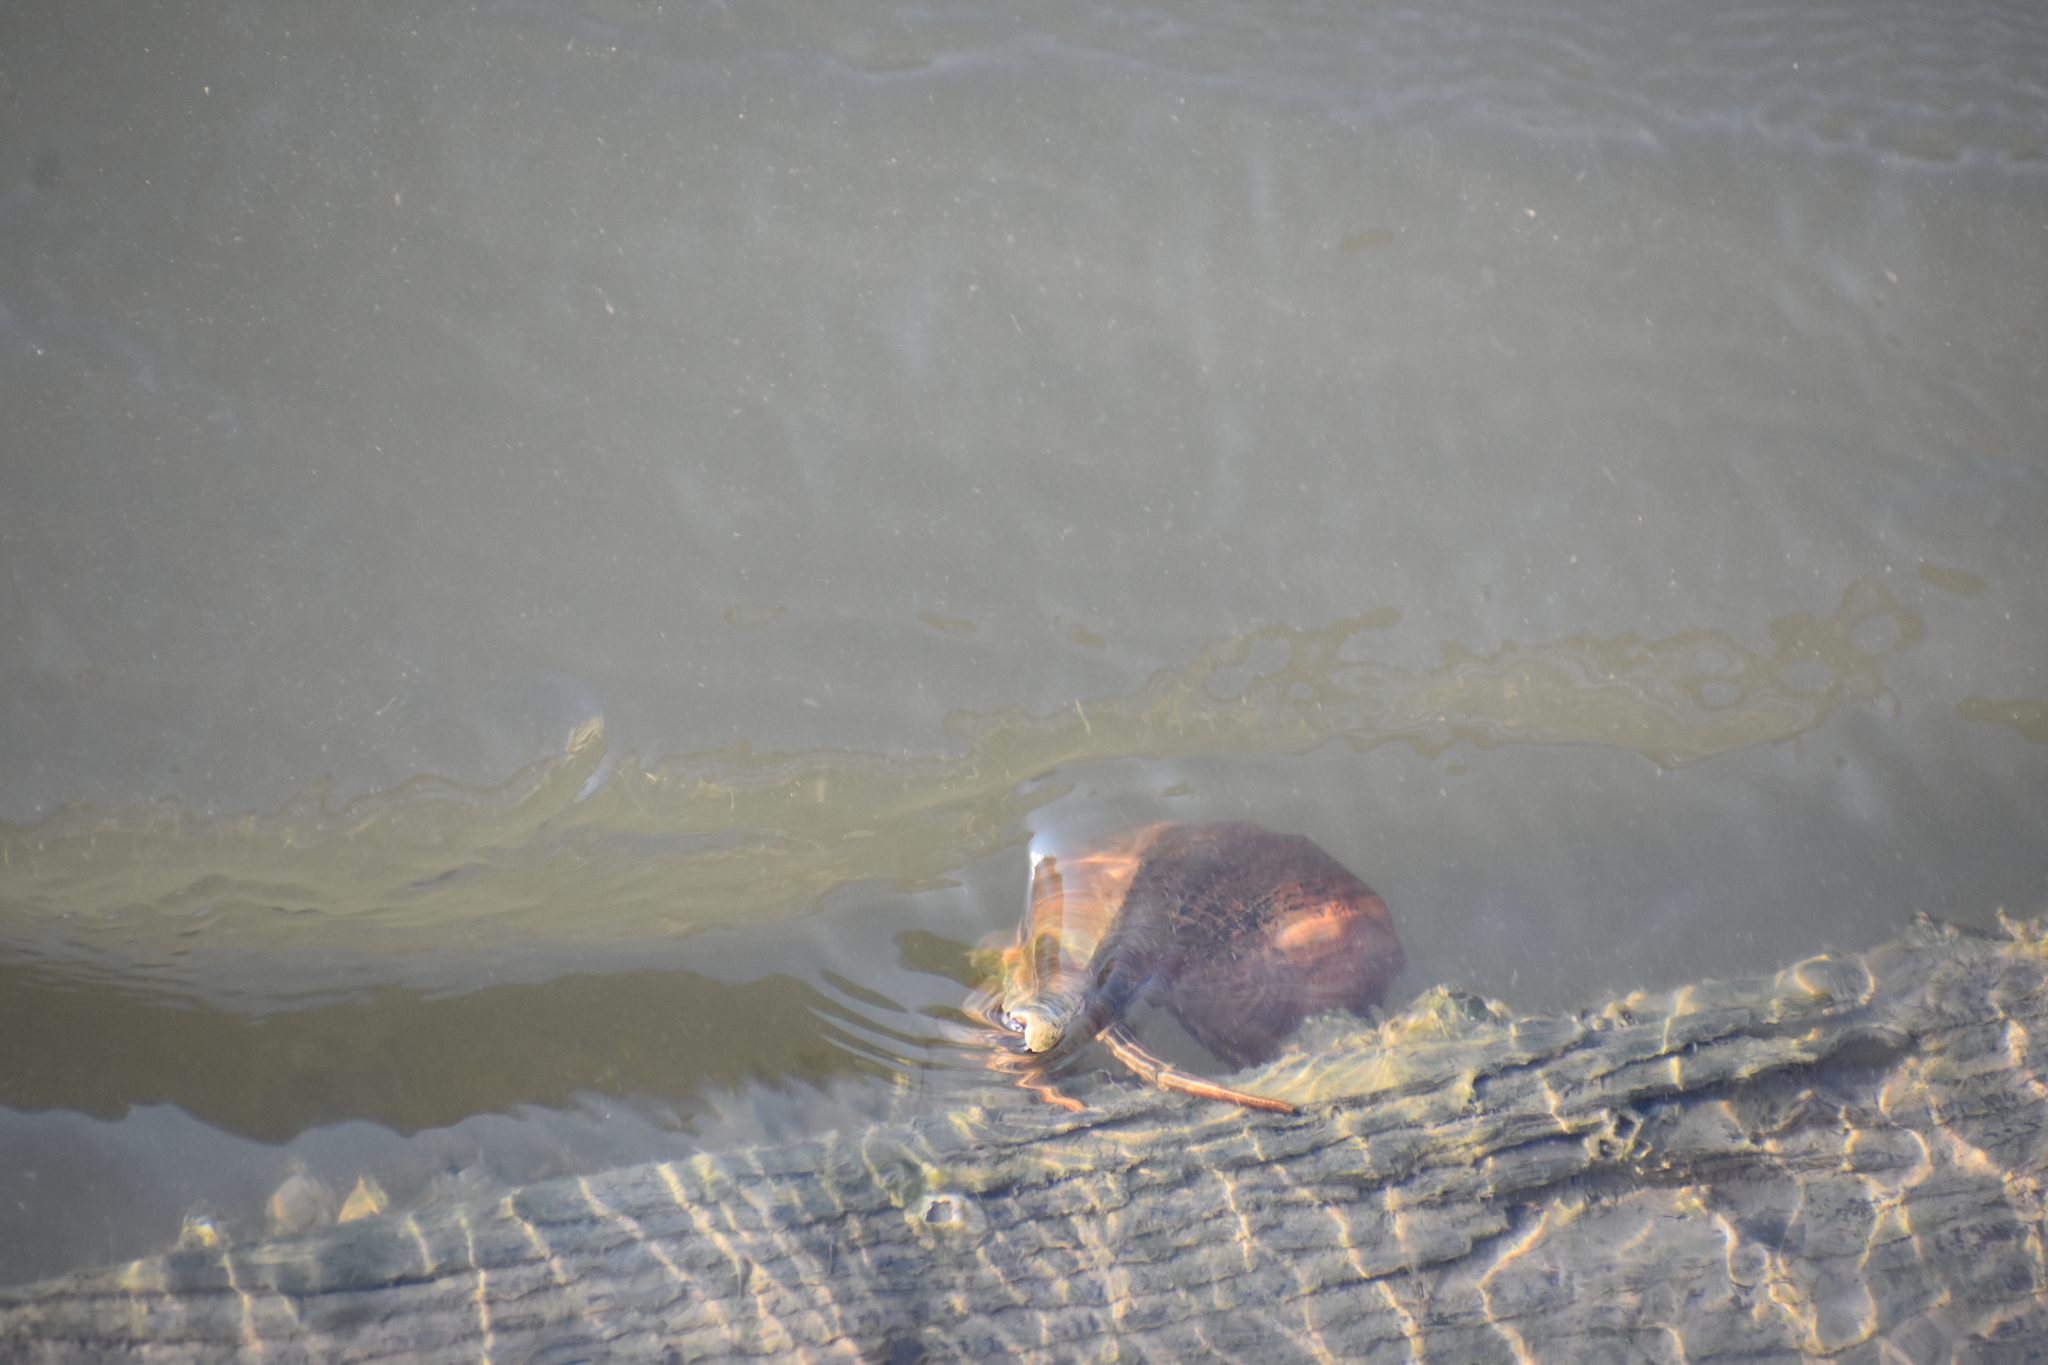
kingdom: Animalia
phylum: Arthropoda
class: Malacostraca
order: Decapoda
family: Diogenidae
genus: Clibanarius
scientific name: Clibanarius vittatus
